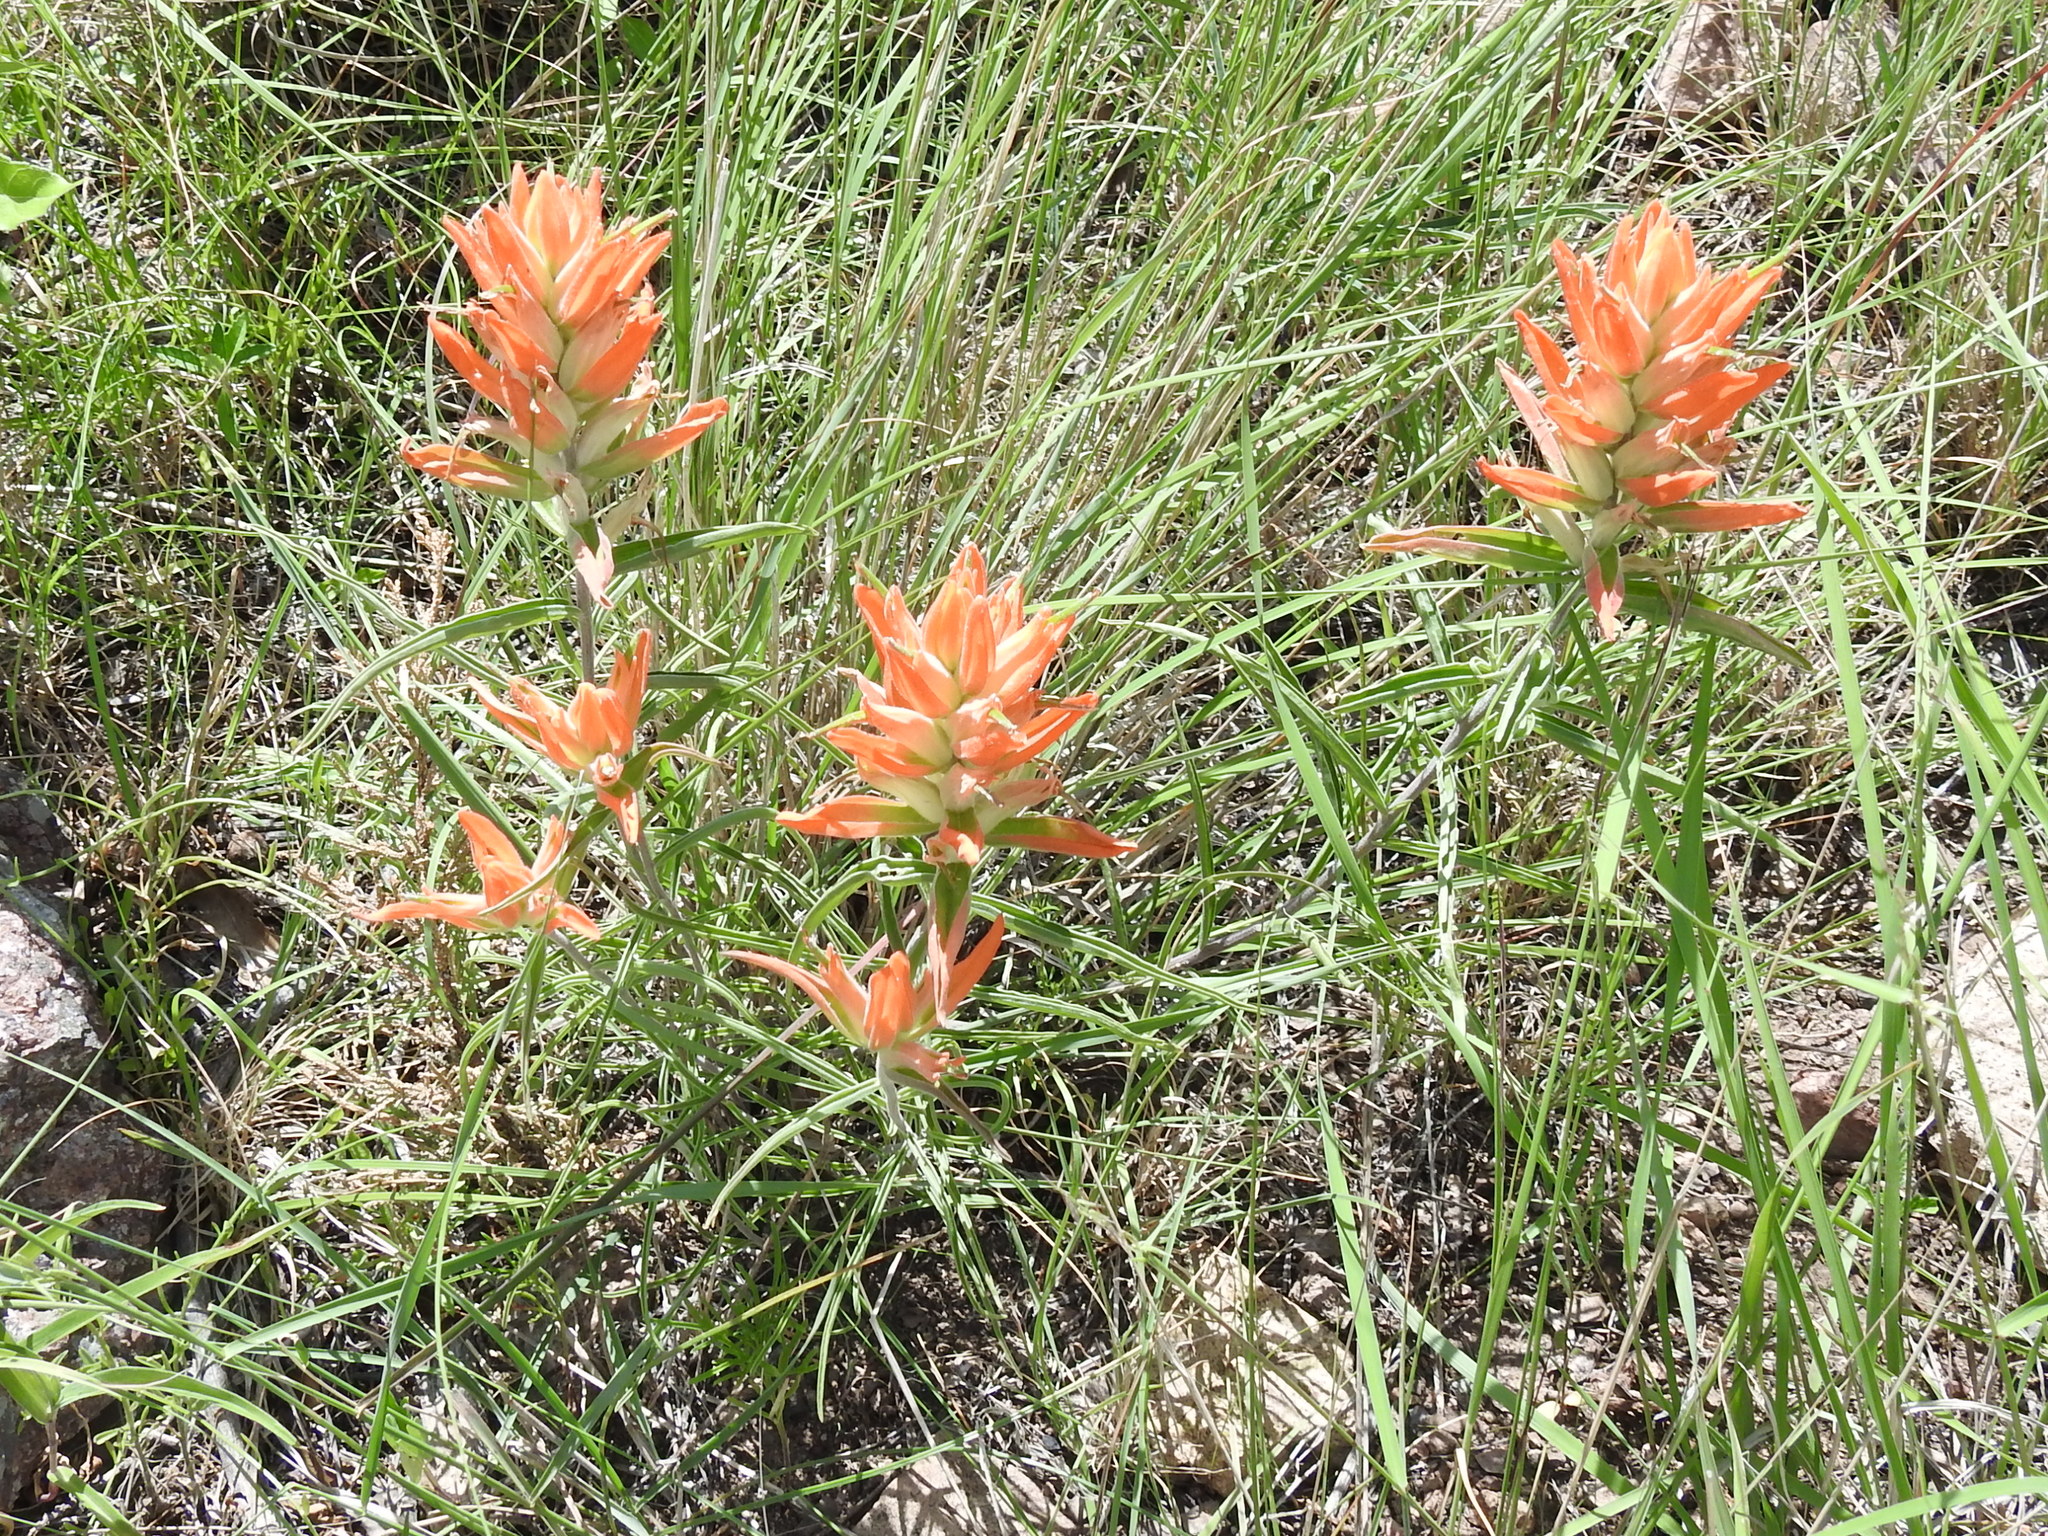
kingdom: Plantae
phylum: Tracheophyta
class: Magnoliopsida
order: Lamiales
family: Orobanchaceae
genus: Castilleja
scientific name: Castilleja integra
